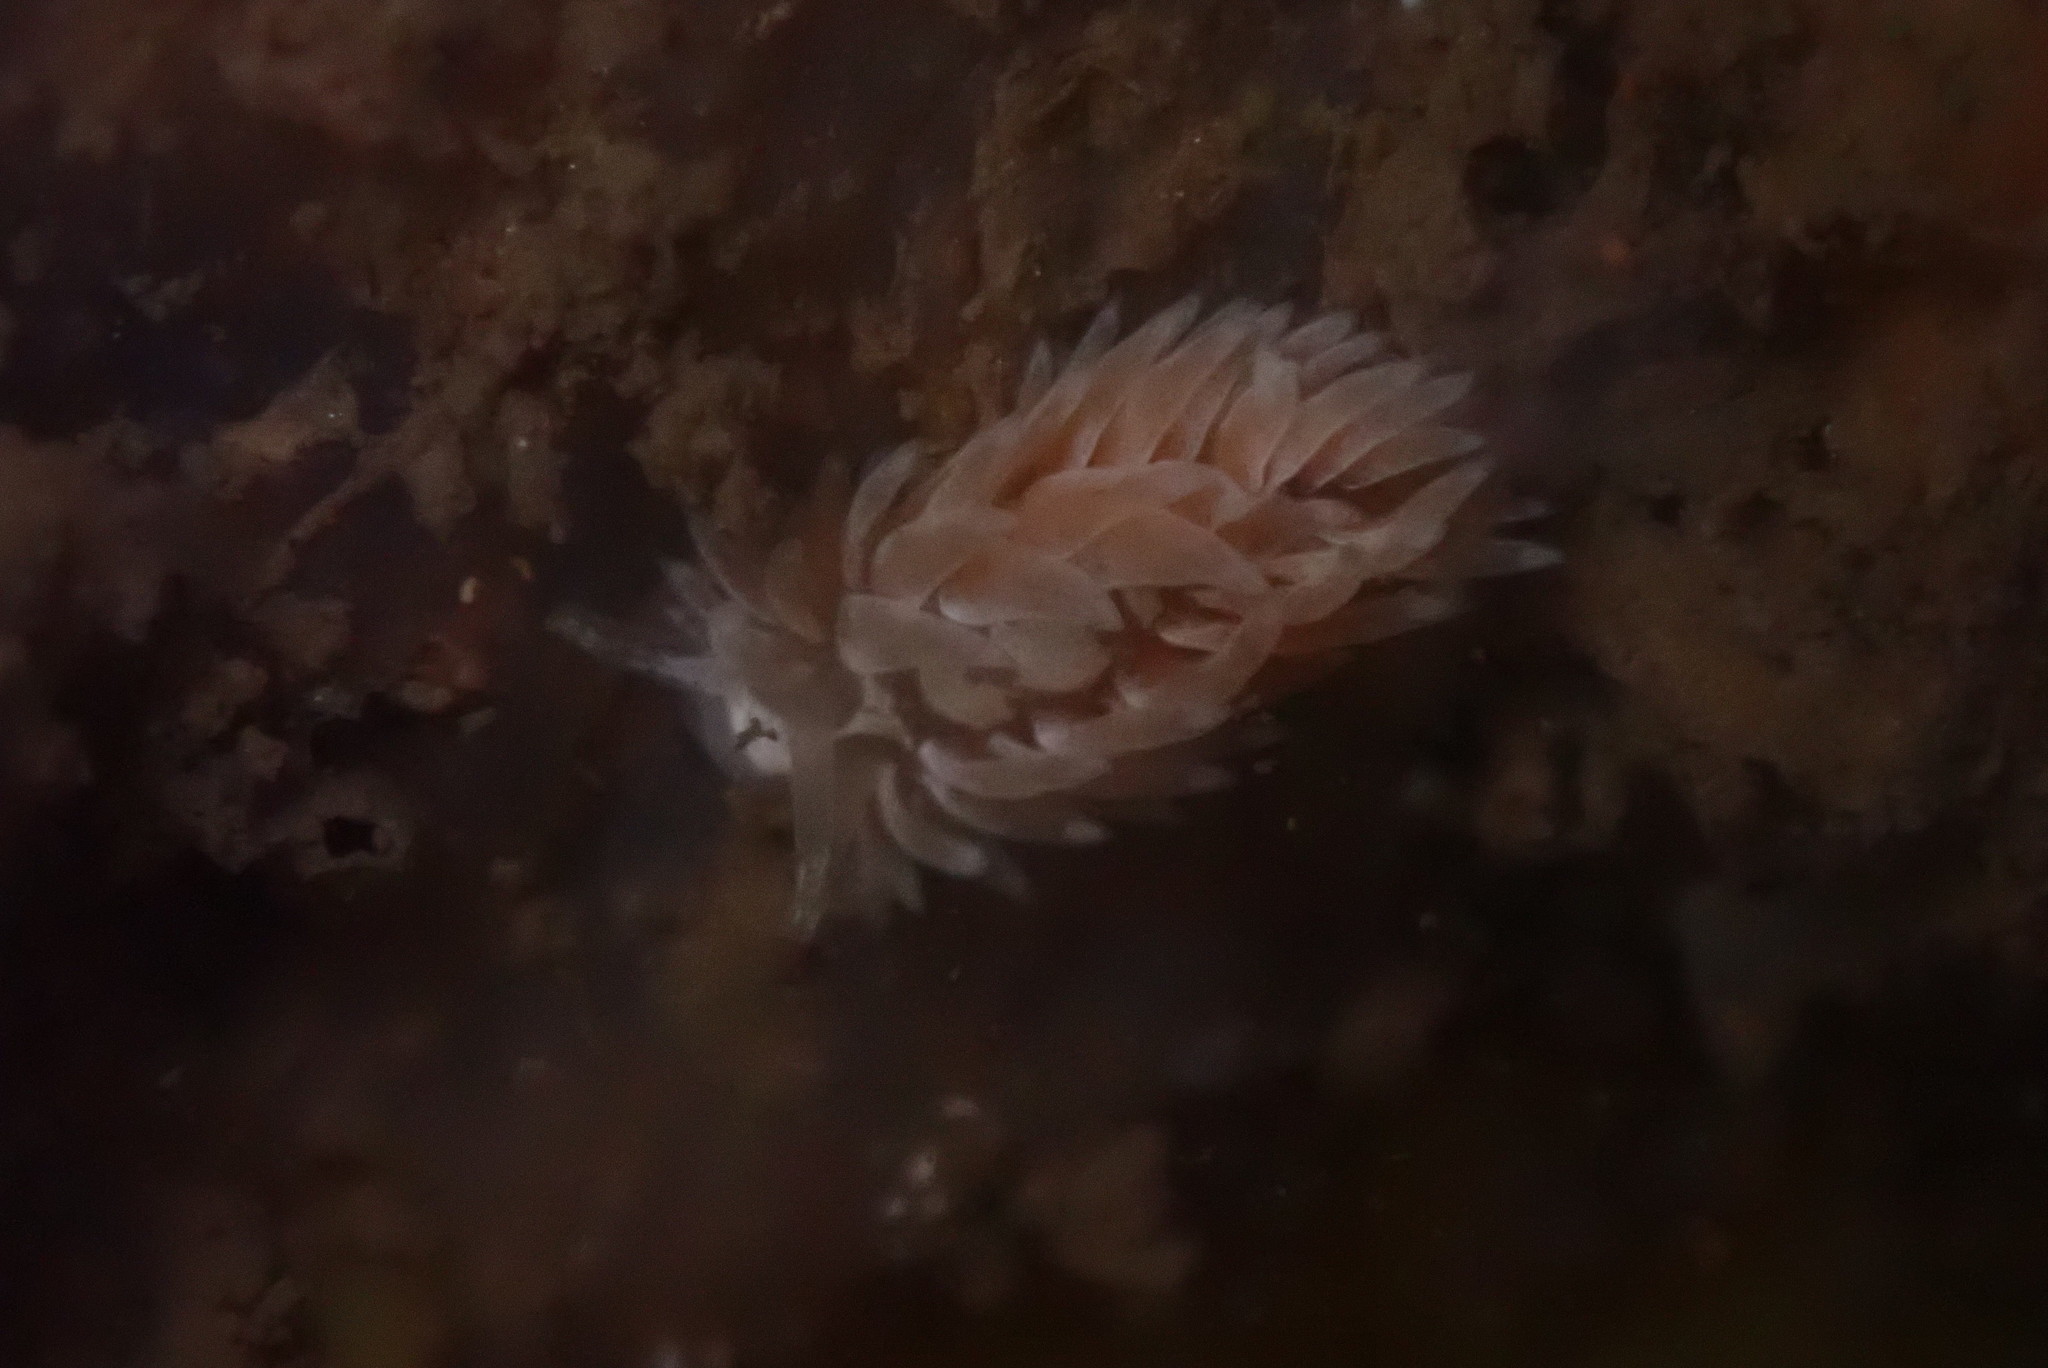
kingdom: Animalia
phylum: Mollusca
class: Gastropoda
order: Nudibranchia
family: Aeolidiidae
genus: Aeolidia
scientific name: Aeolidia loui
